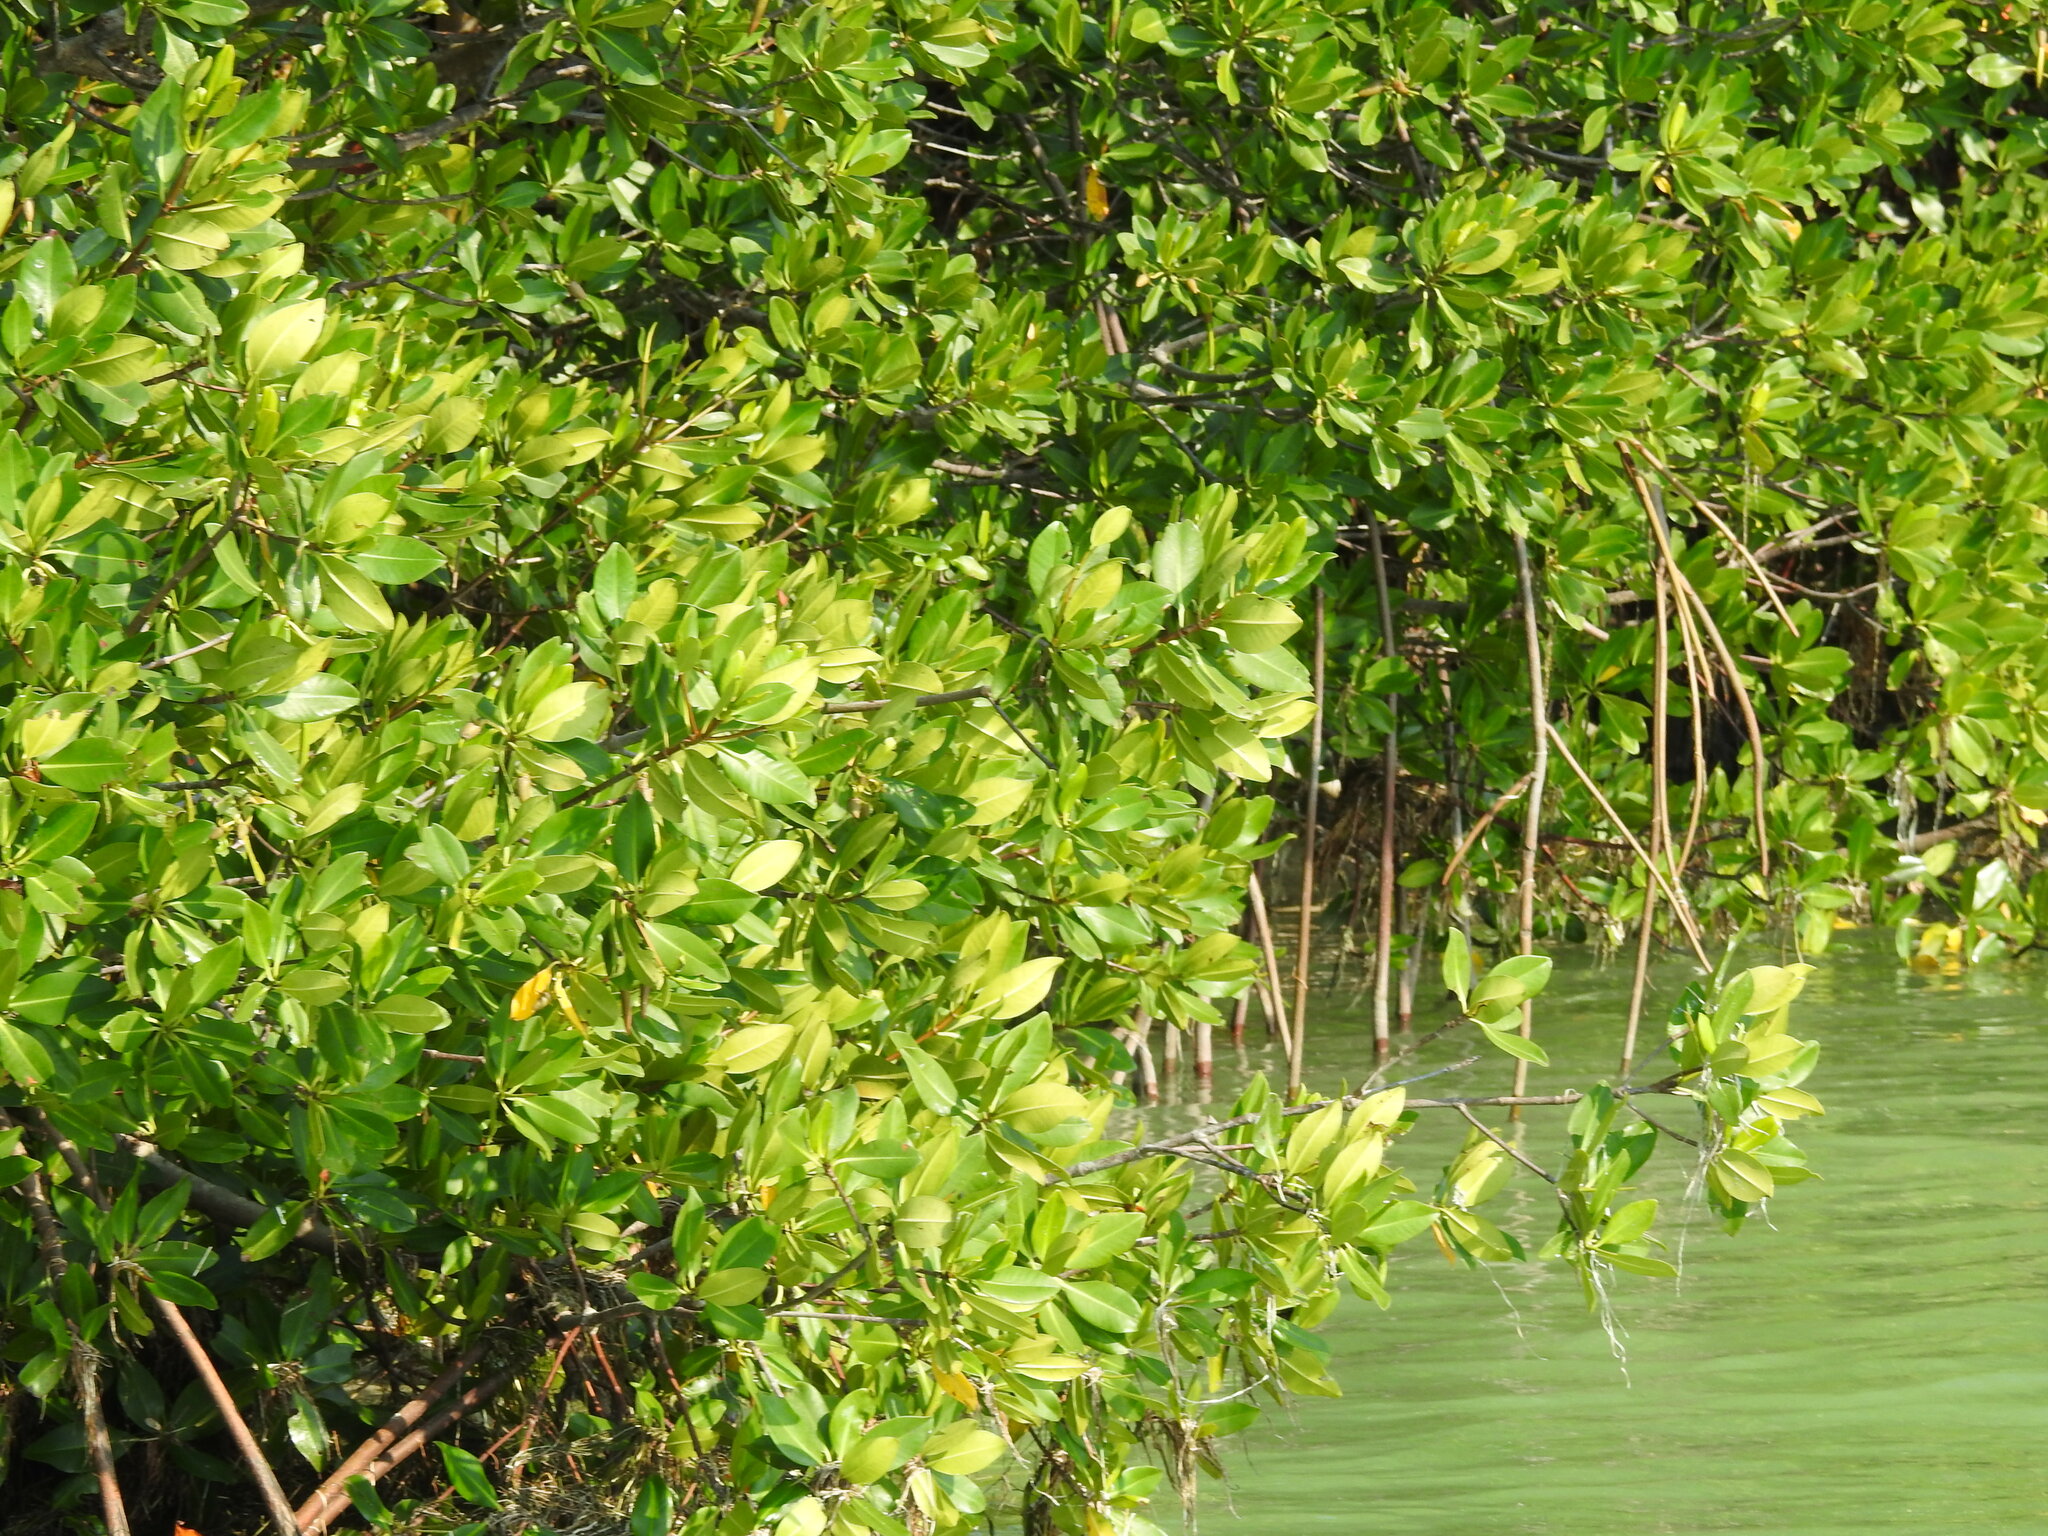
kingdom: Plantae
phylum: Tracheophyta
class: Magnoliopsida
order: Malpighiales
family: Rhizophoraceae
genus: Rhizophora
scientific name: Rhizophora mangle
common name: Red mangrove
